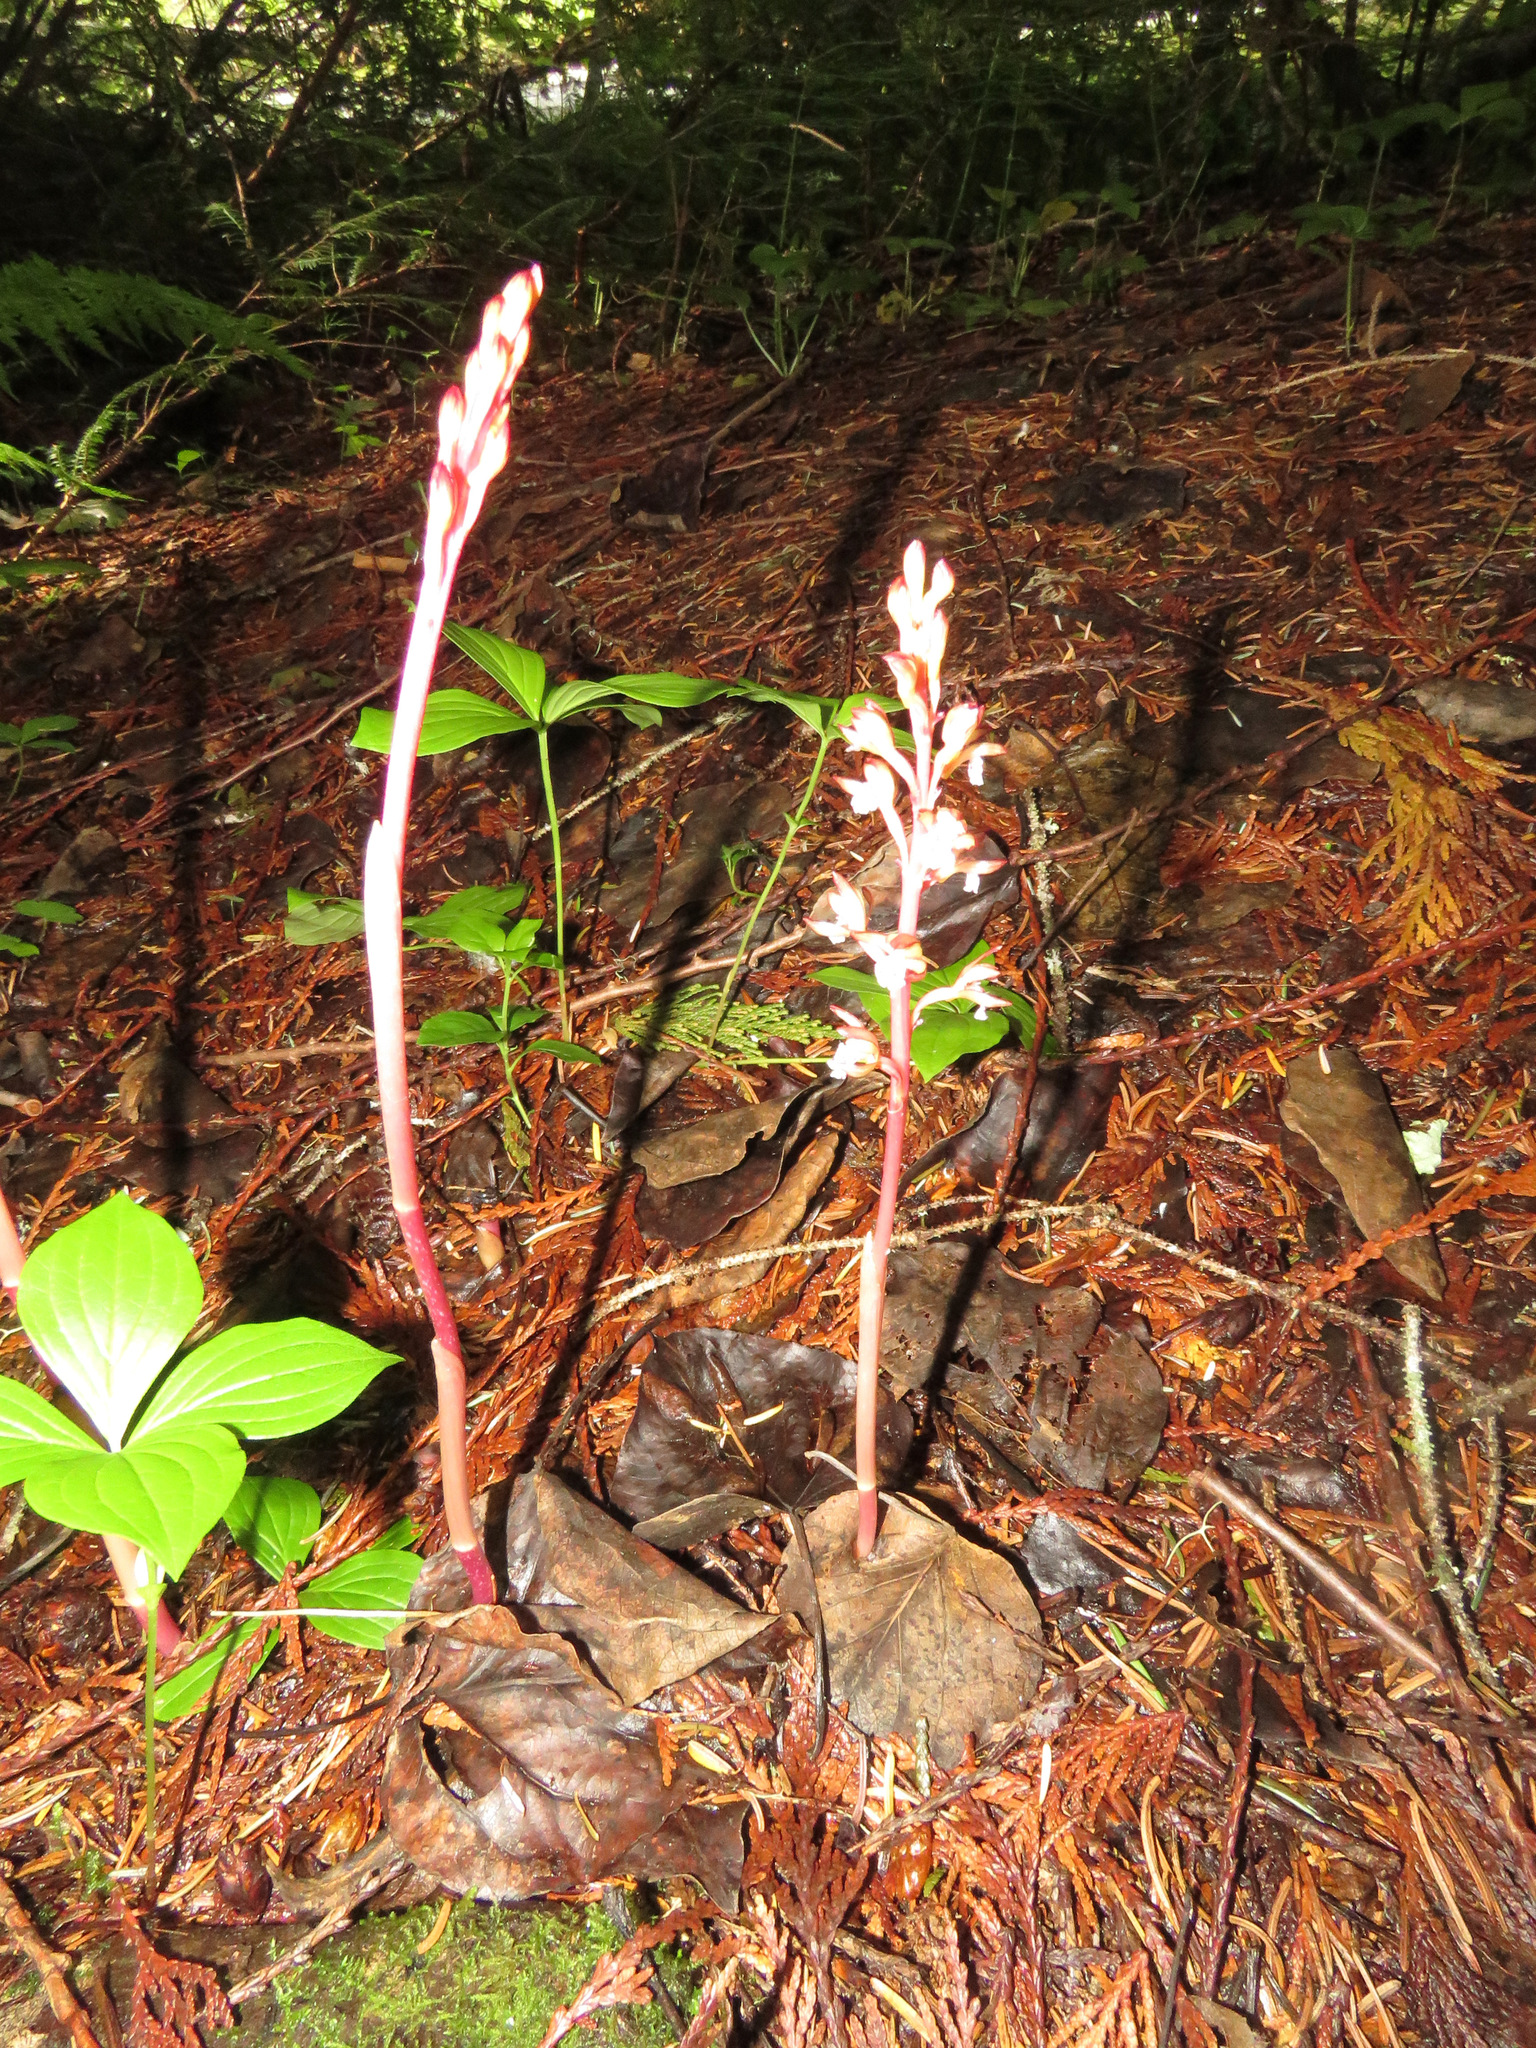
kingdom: Plantae
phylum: Tracheophyta
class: Liliopsida
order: Asparagales
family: Orchidaceae
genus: Corallorhiza
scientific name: Corallorhiza maculata
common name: Spotted coralroot
